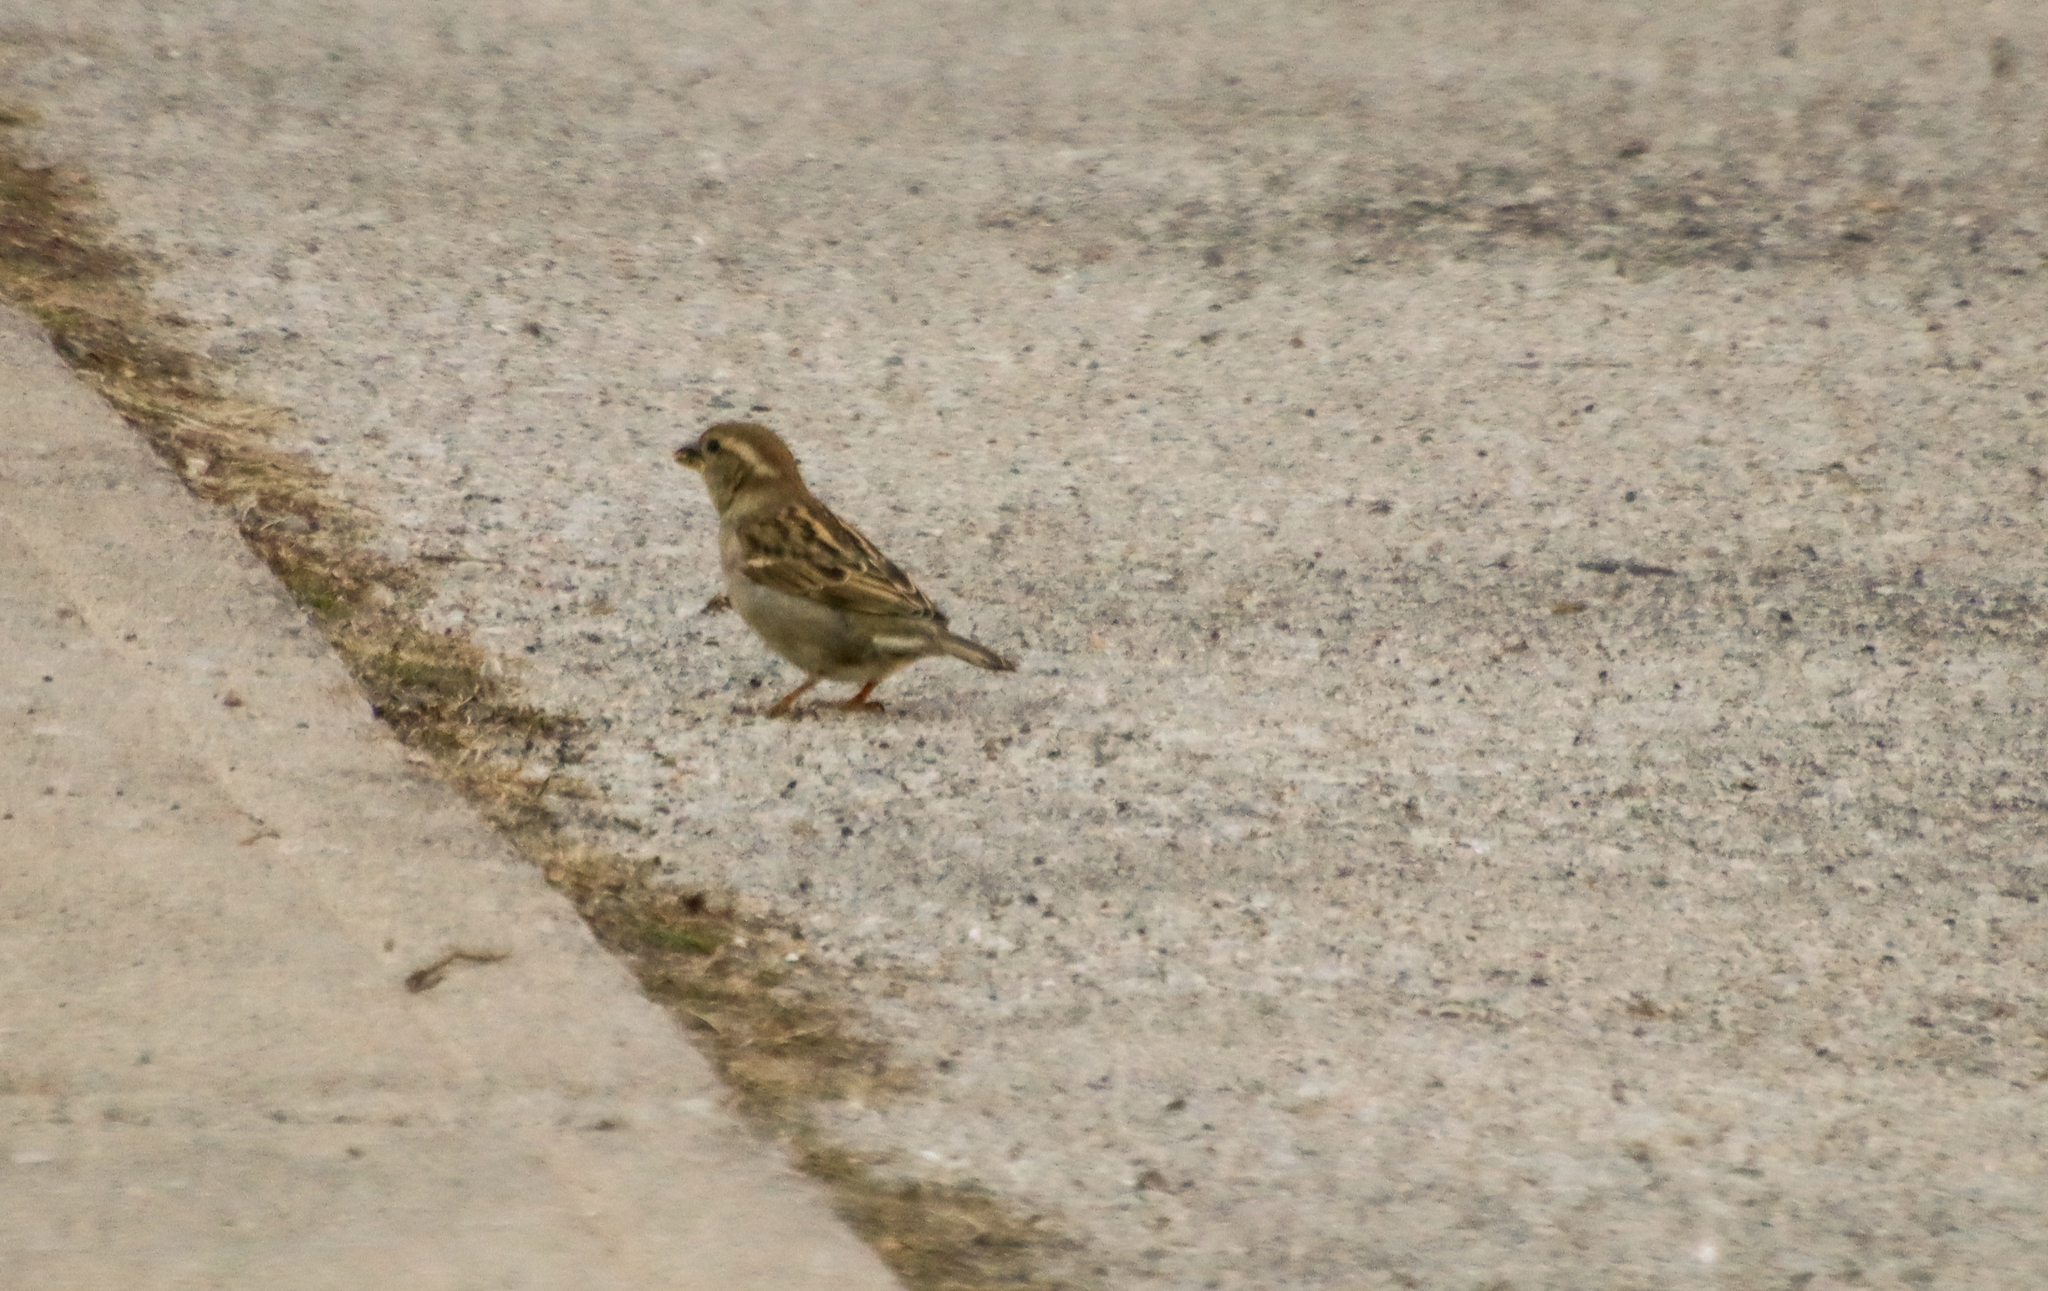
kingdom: Animalia
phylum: Chordata
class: Aves
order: Passeriformes
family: Passeridae
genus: Passer
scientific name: Passer domesticus
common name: House sparrow
